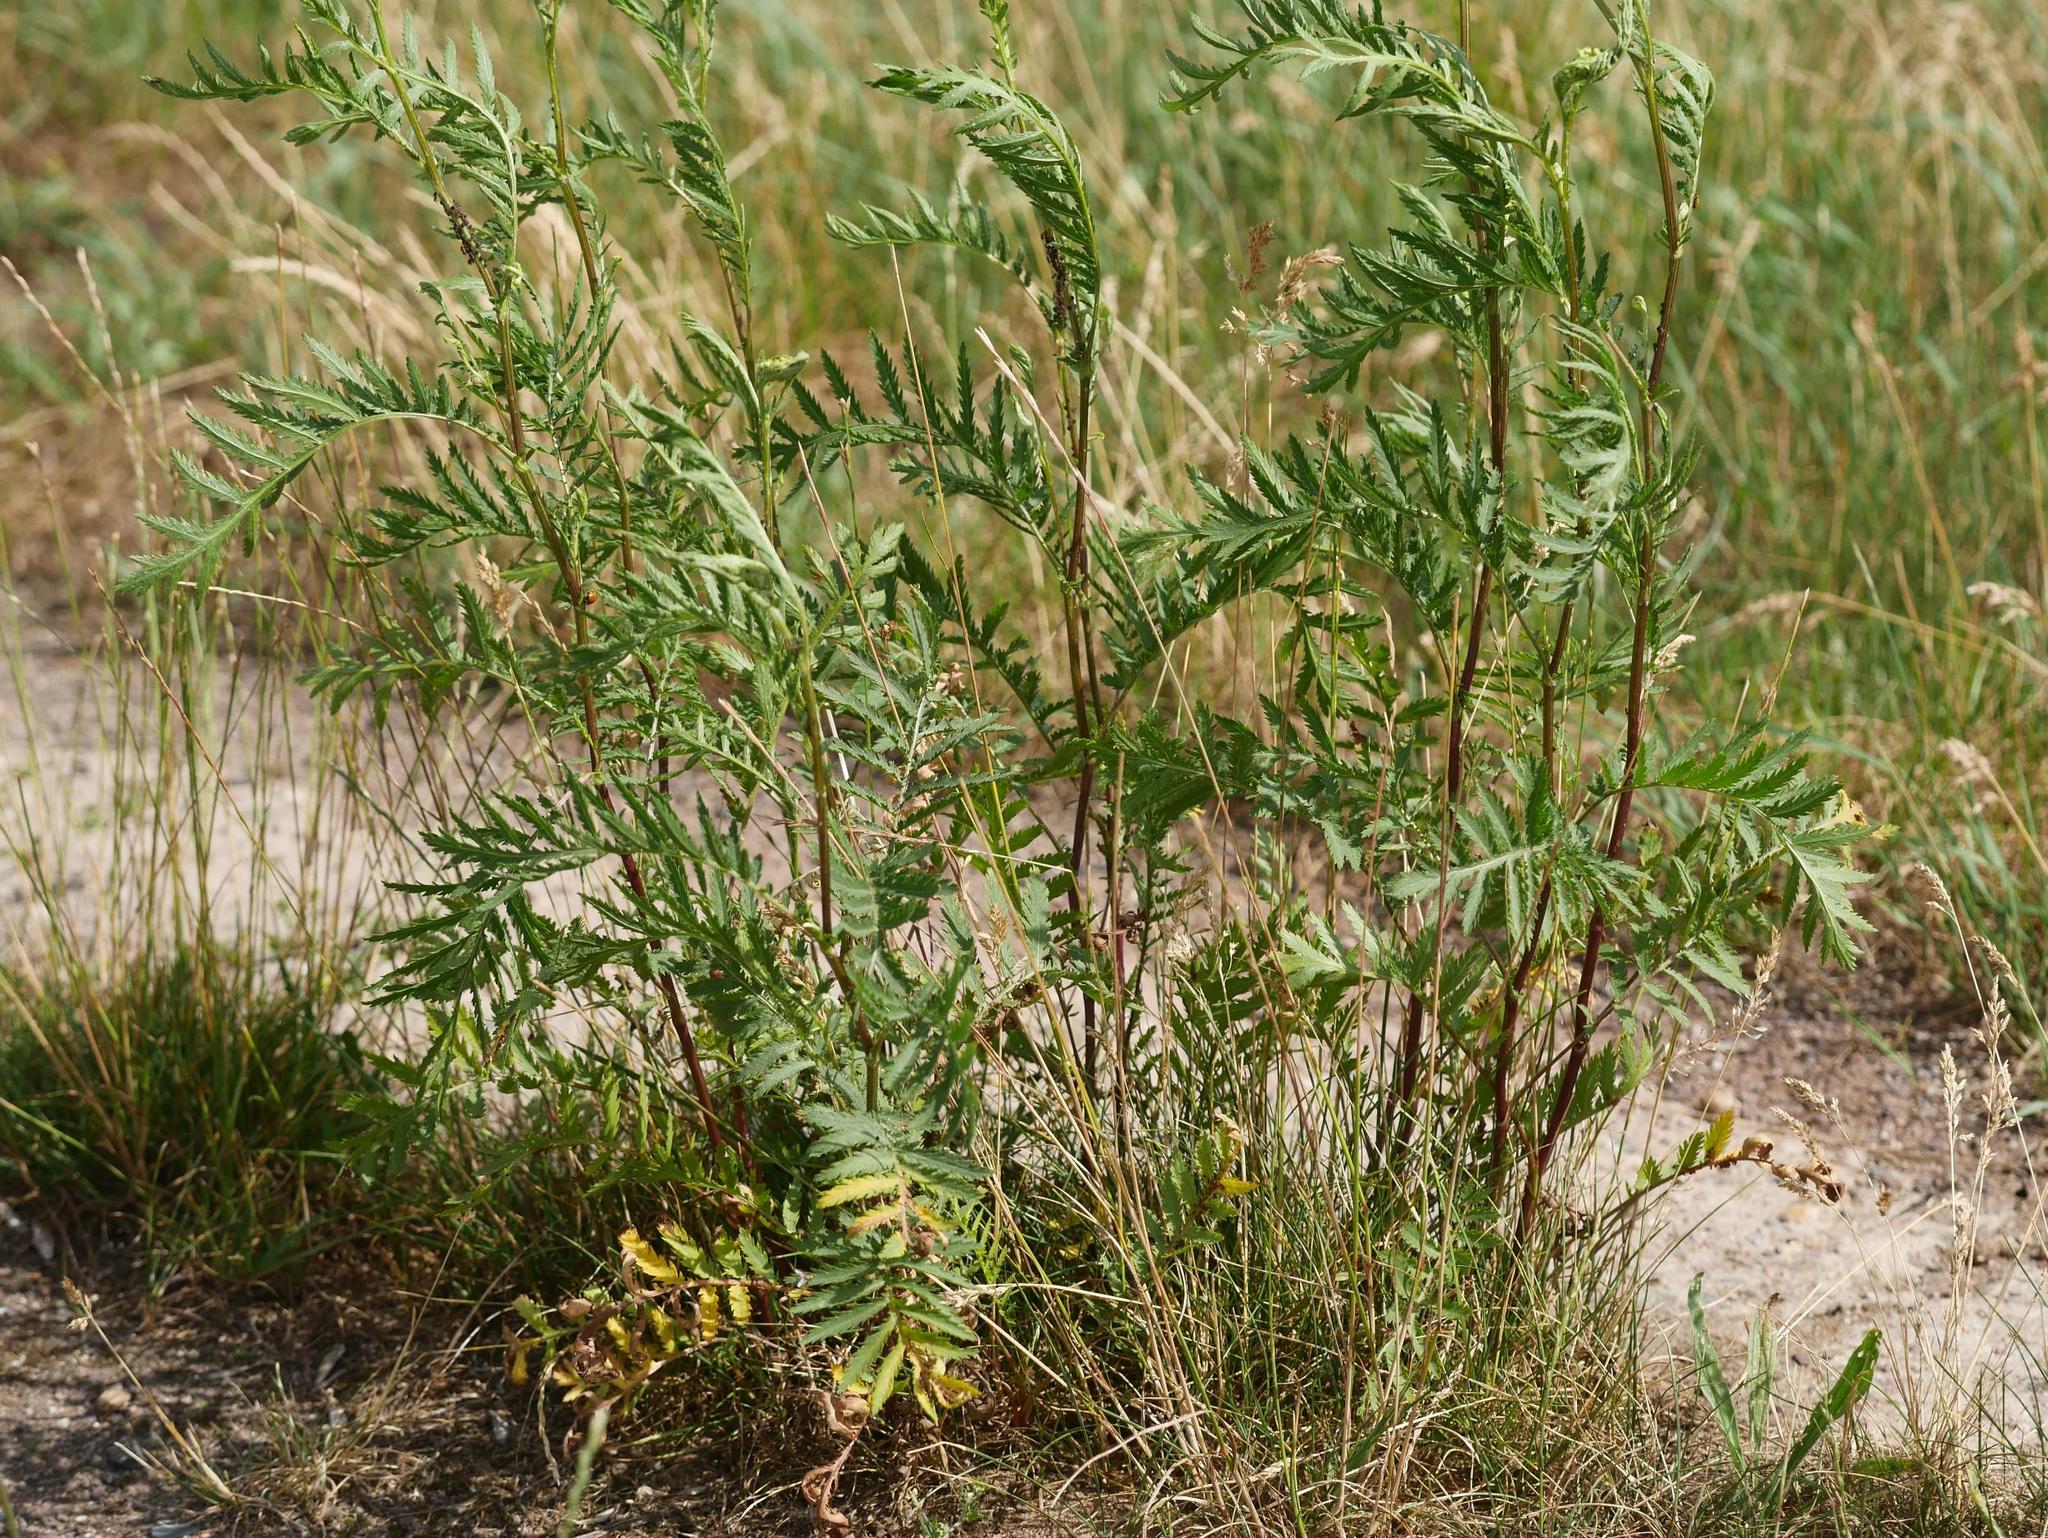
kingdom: Plantae
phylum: Tracheophyta
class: Magnoliopsida
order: Asterales
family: Asteraceae
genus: Tanacetum
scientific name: Tanacetum vulgare
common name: Common tansy
